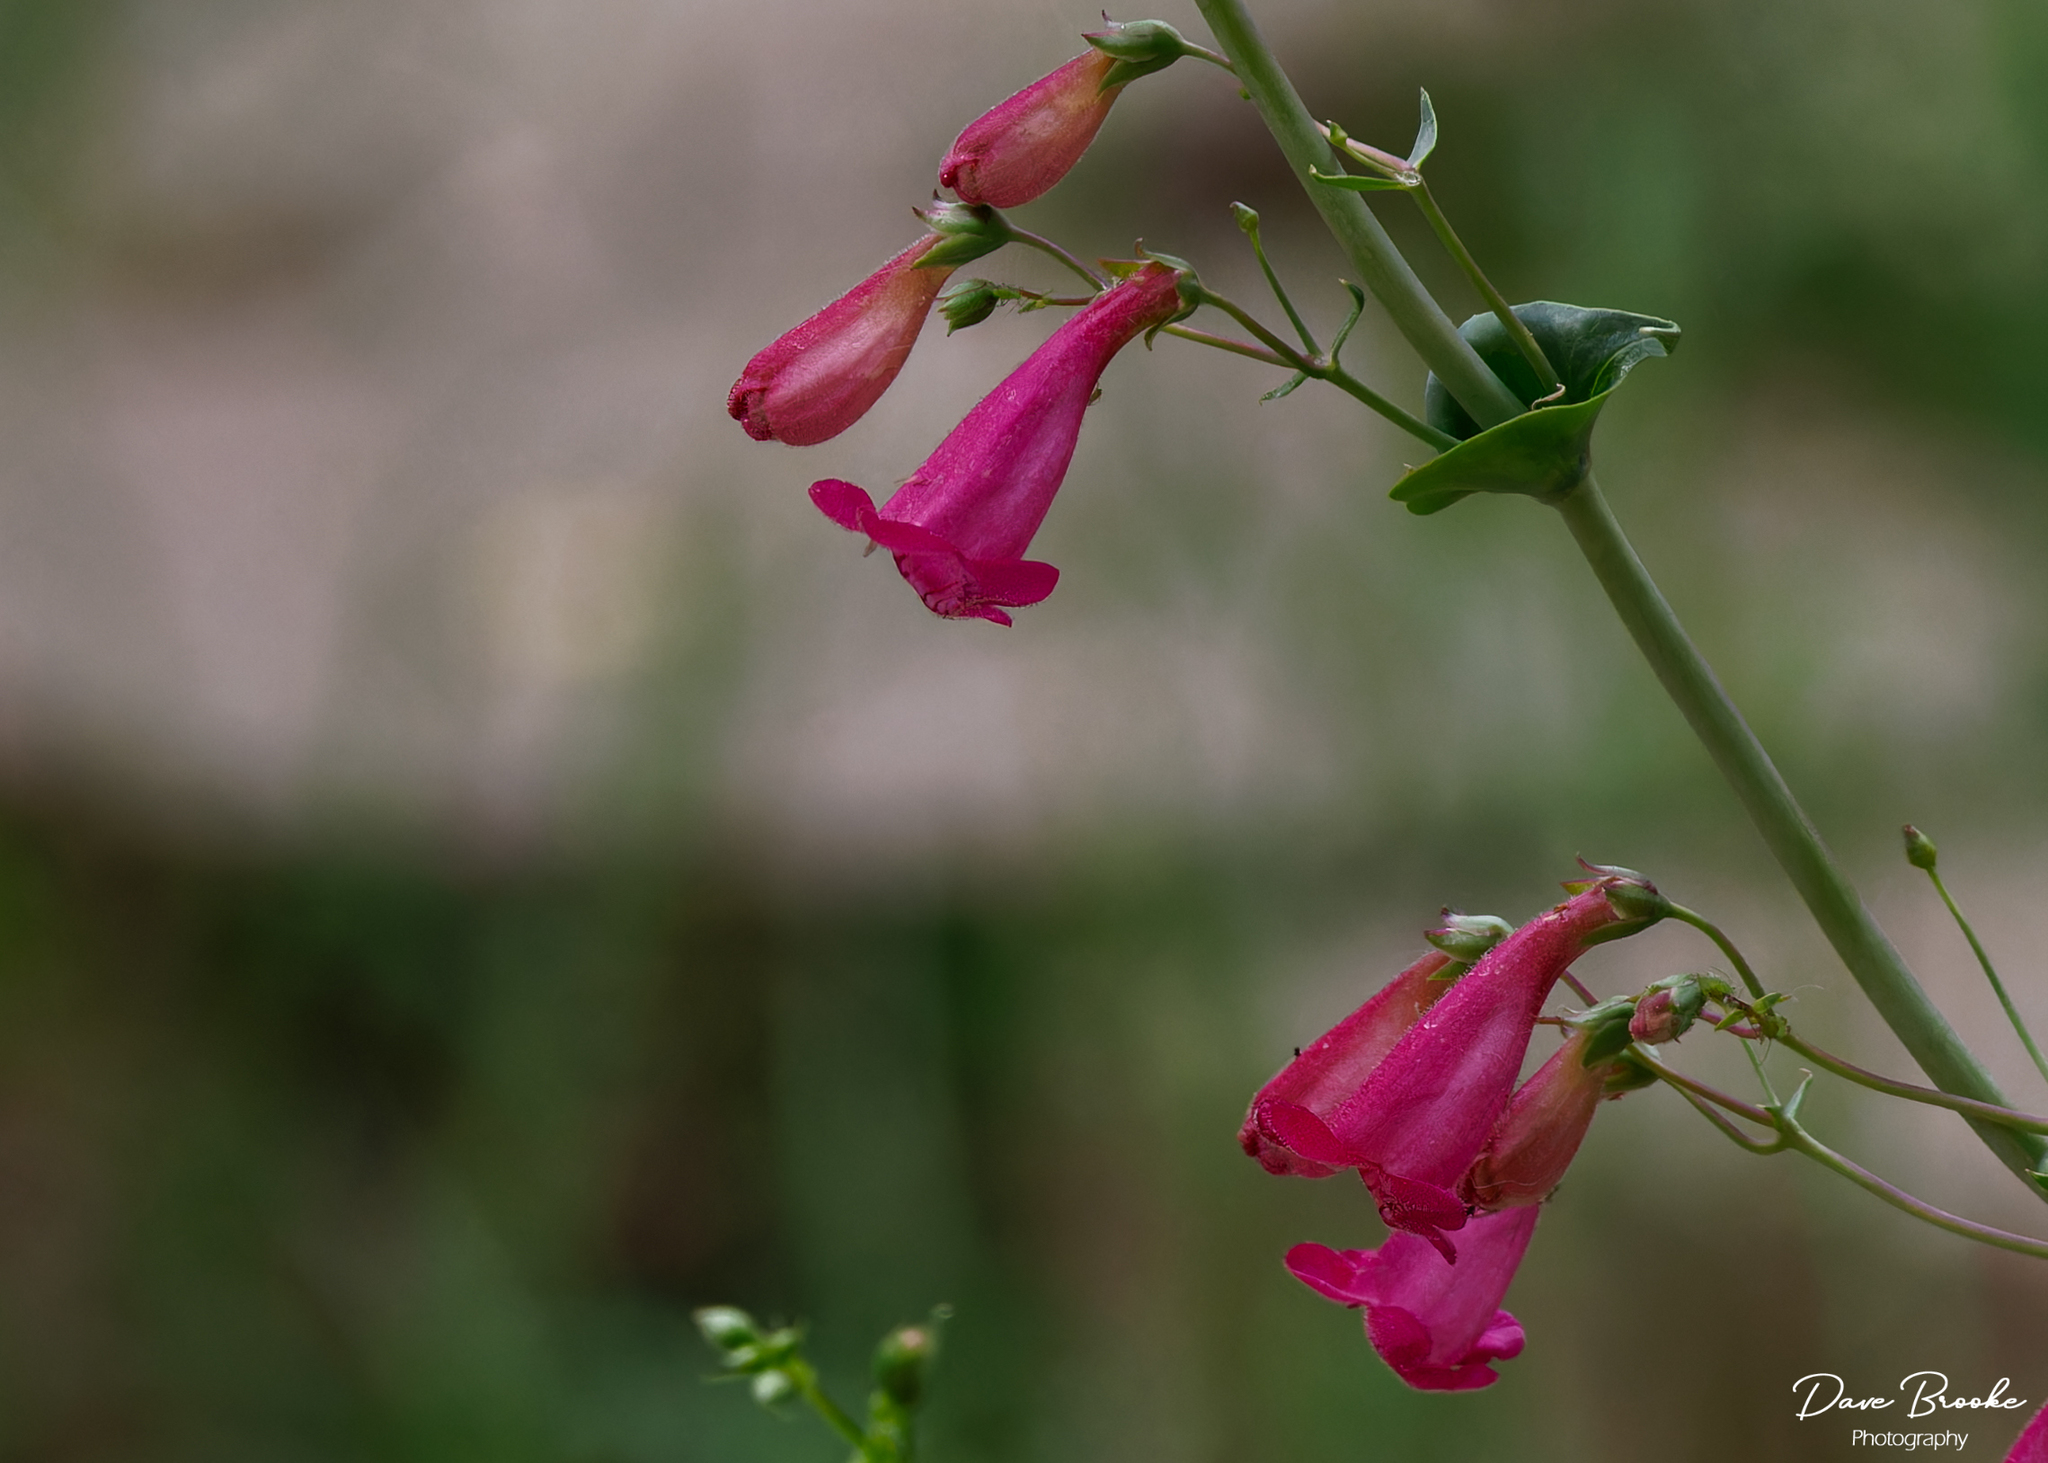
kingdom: Plantae
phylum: Tracheophyta
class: Magnoliopsida
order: Lamiales
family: Plantaginaceae
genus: Penstemon
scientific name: Penstemon pseudospectabilis
